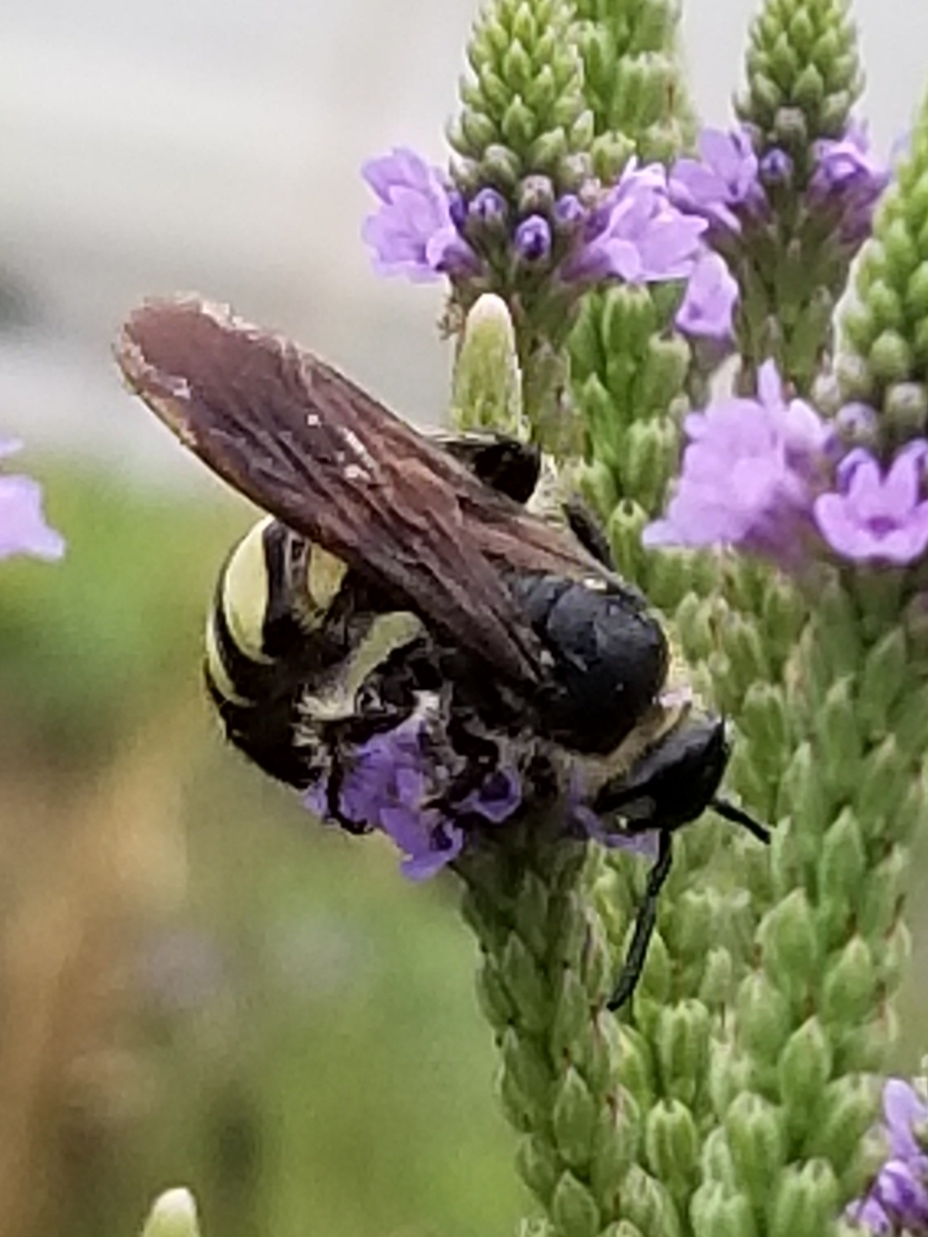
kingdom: Animalia
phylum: Arthropoda
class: Insecta
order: Hymenoptera
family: Scoliidae
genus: Dielis
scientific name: Dielis
